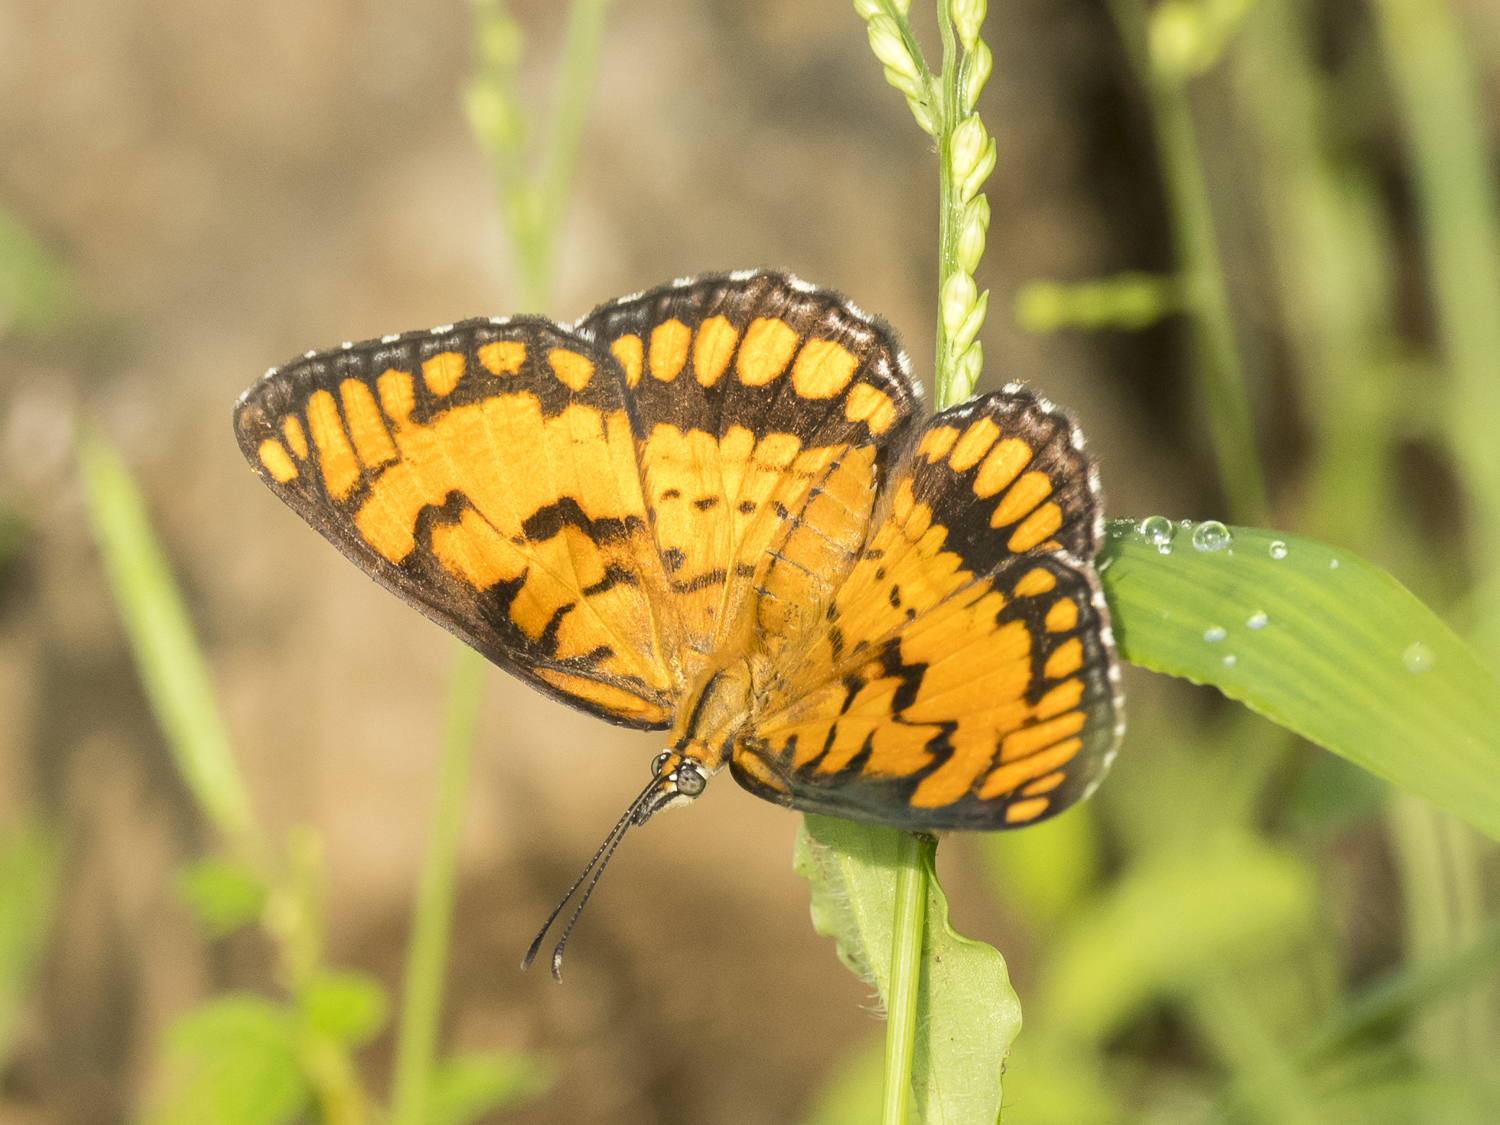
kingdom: Animalia
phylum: Arthropoda
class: Insecta
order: Lepidoptera
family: Nymphalidae
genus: Byblia
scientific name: Byblia ilithyia
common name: Spotted joker
